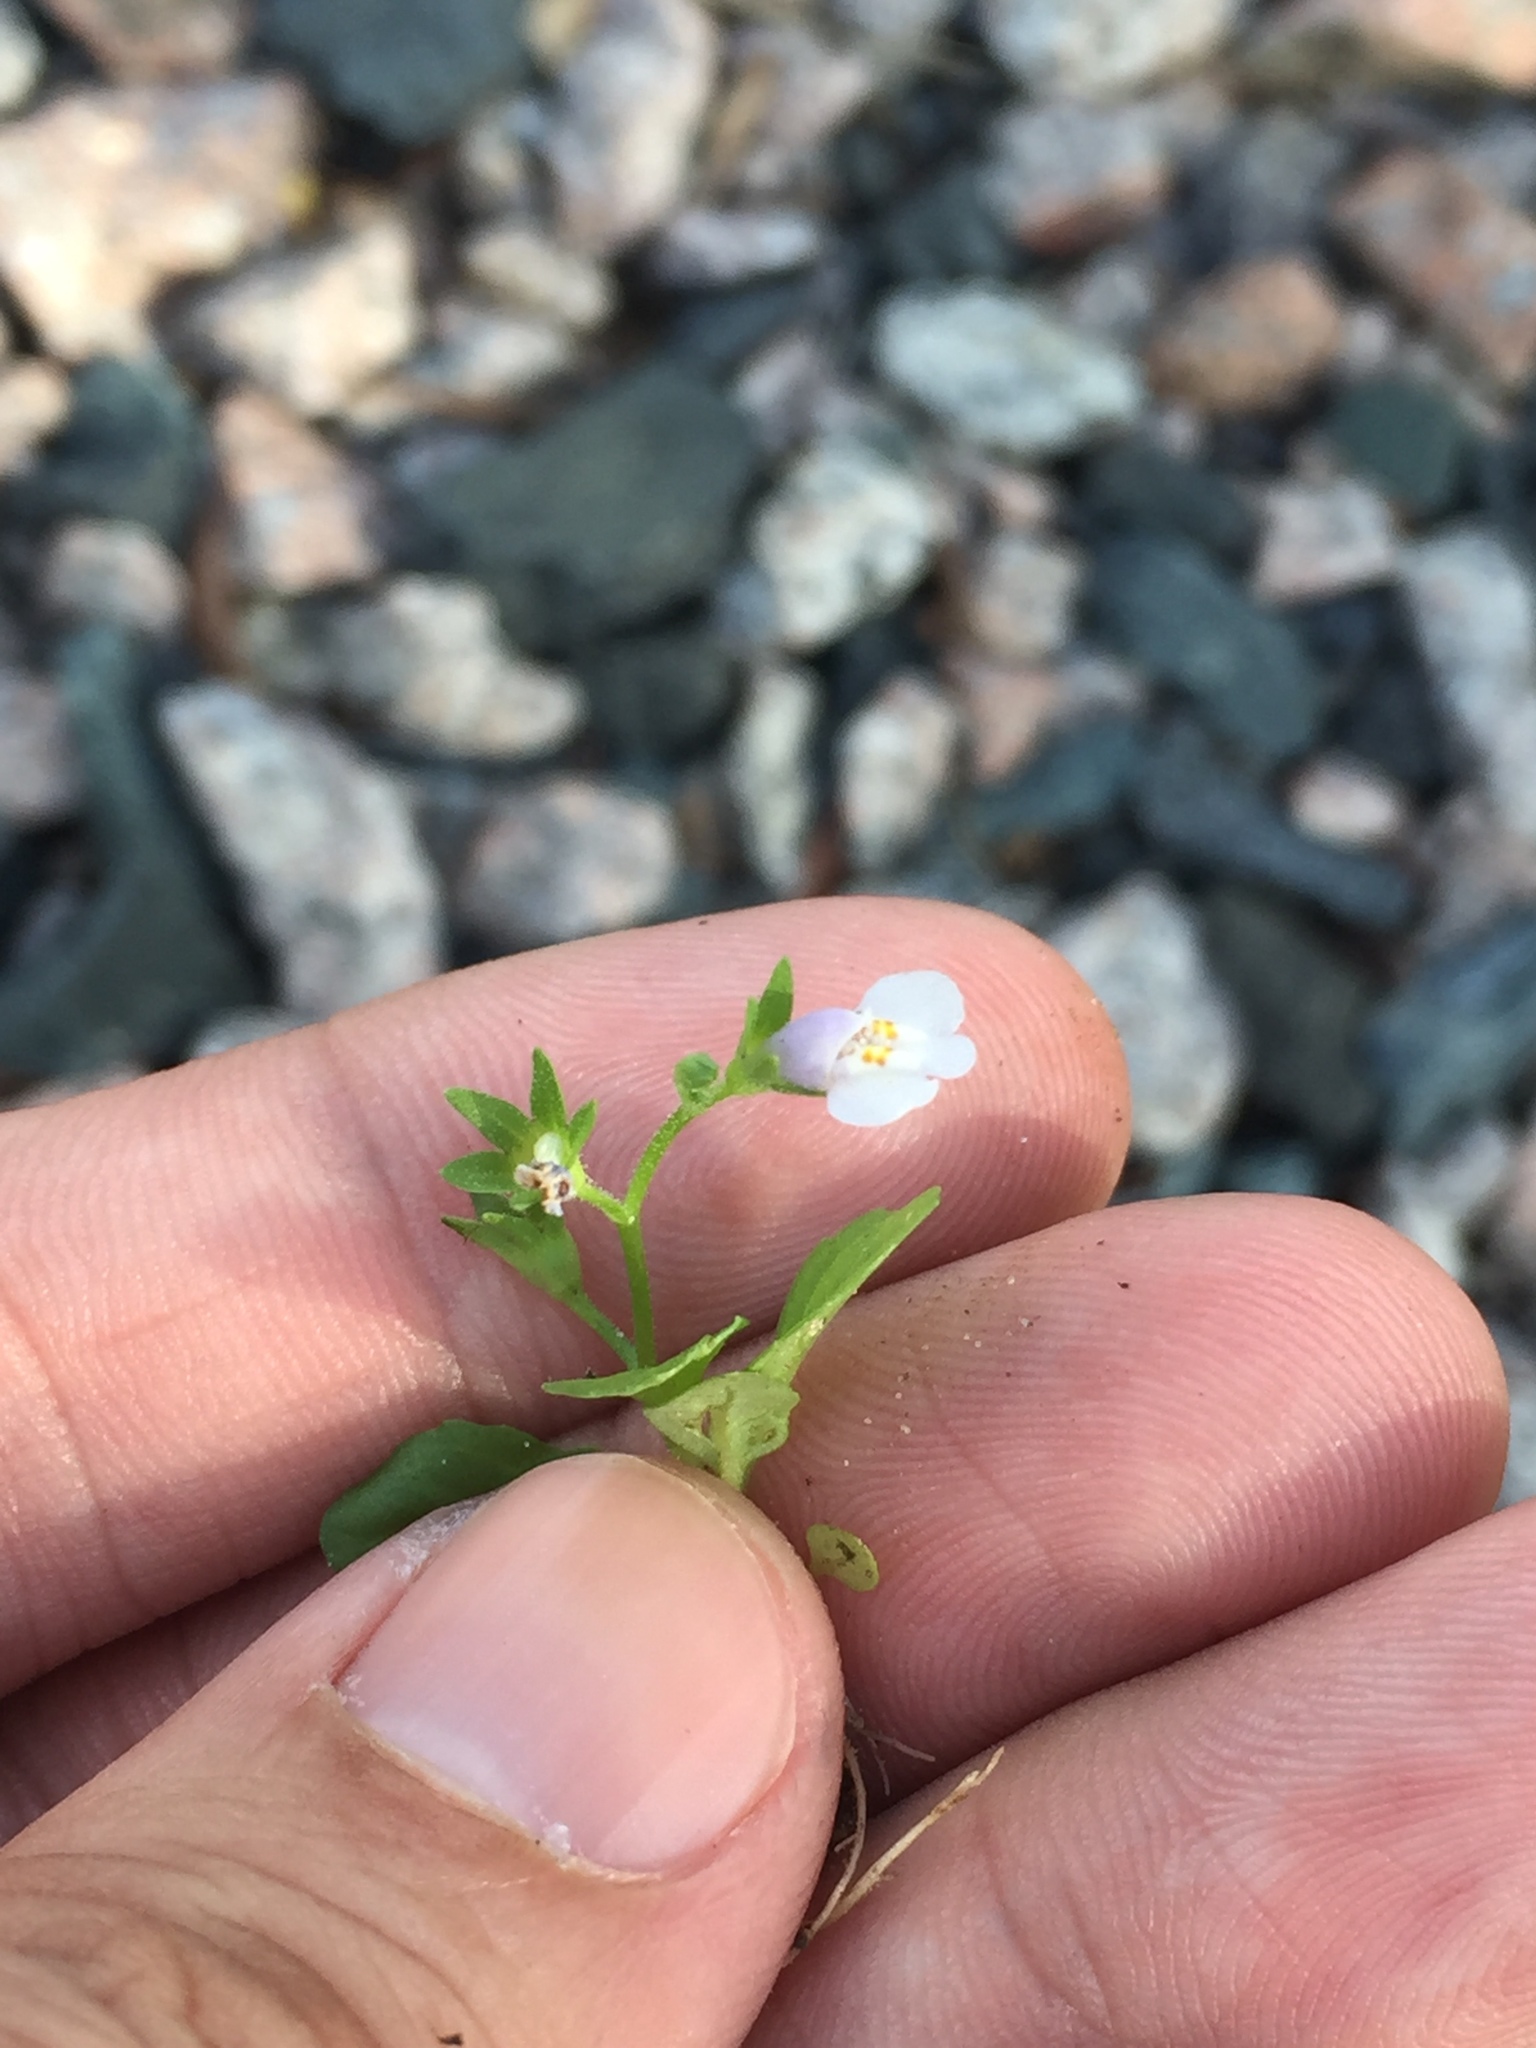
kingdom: Plantae
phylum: Tracheophyta
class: Magnoliopsida
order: Lamiales
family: Mazaceae
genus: Mazus
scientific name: Mazus pumilus
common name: Japanese mazus
